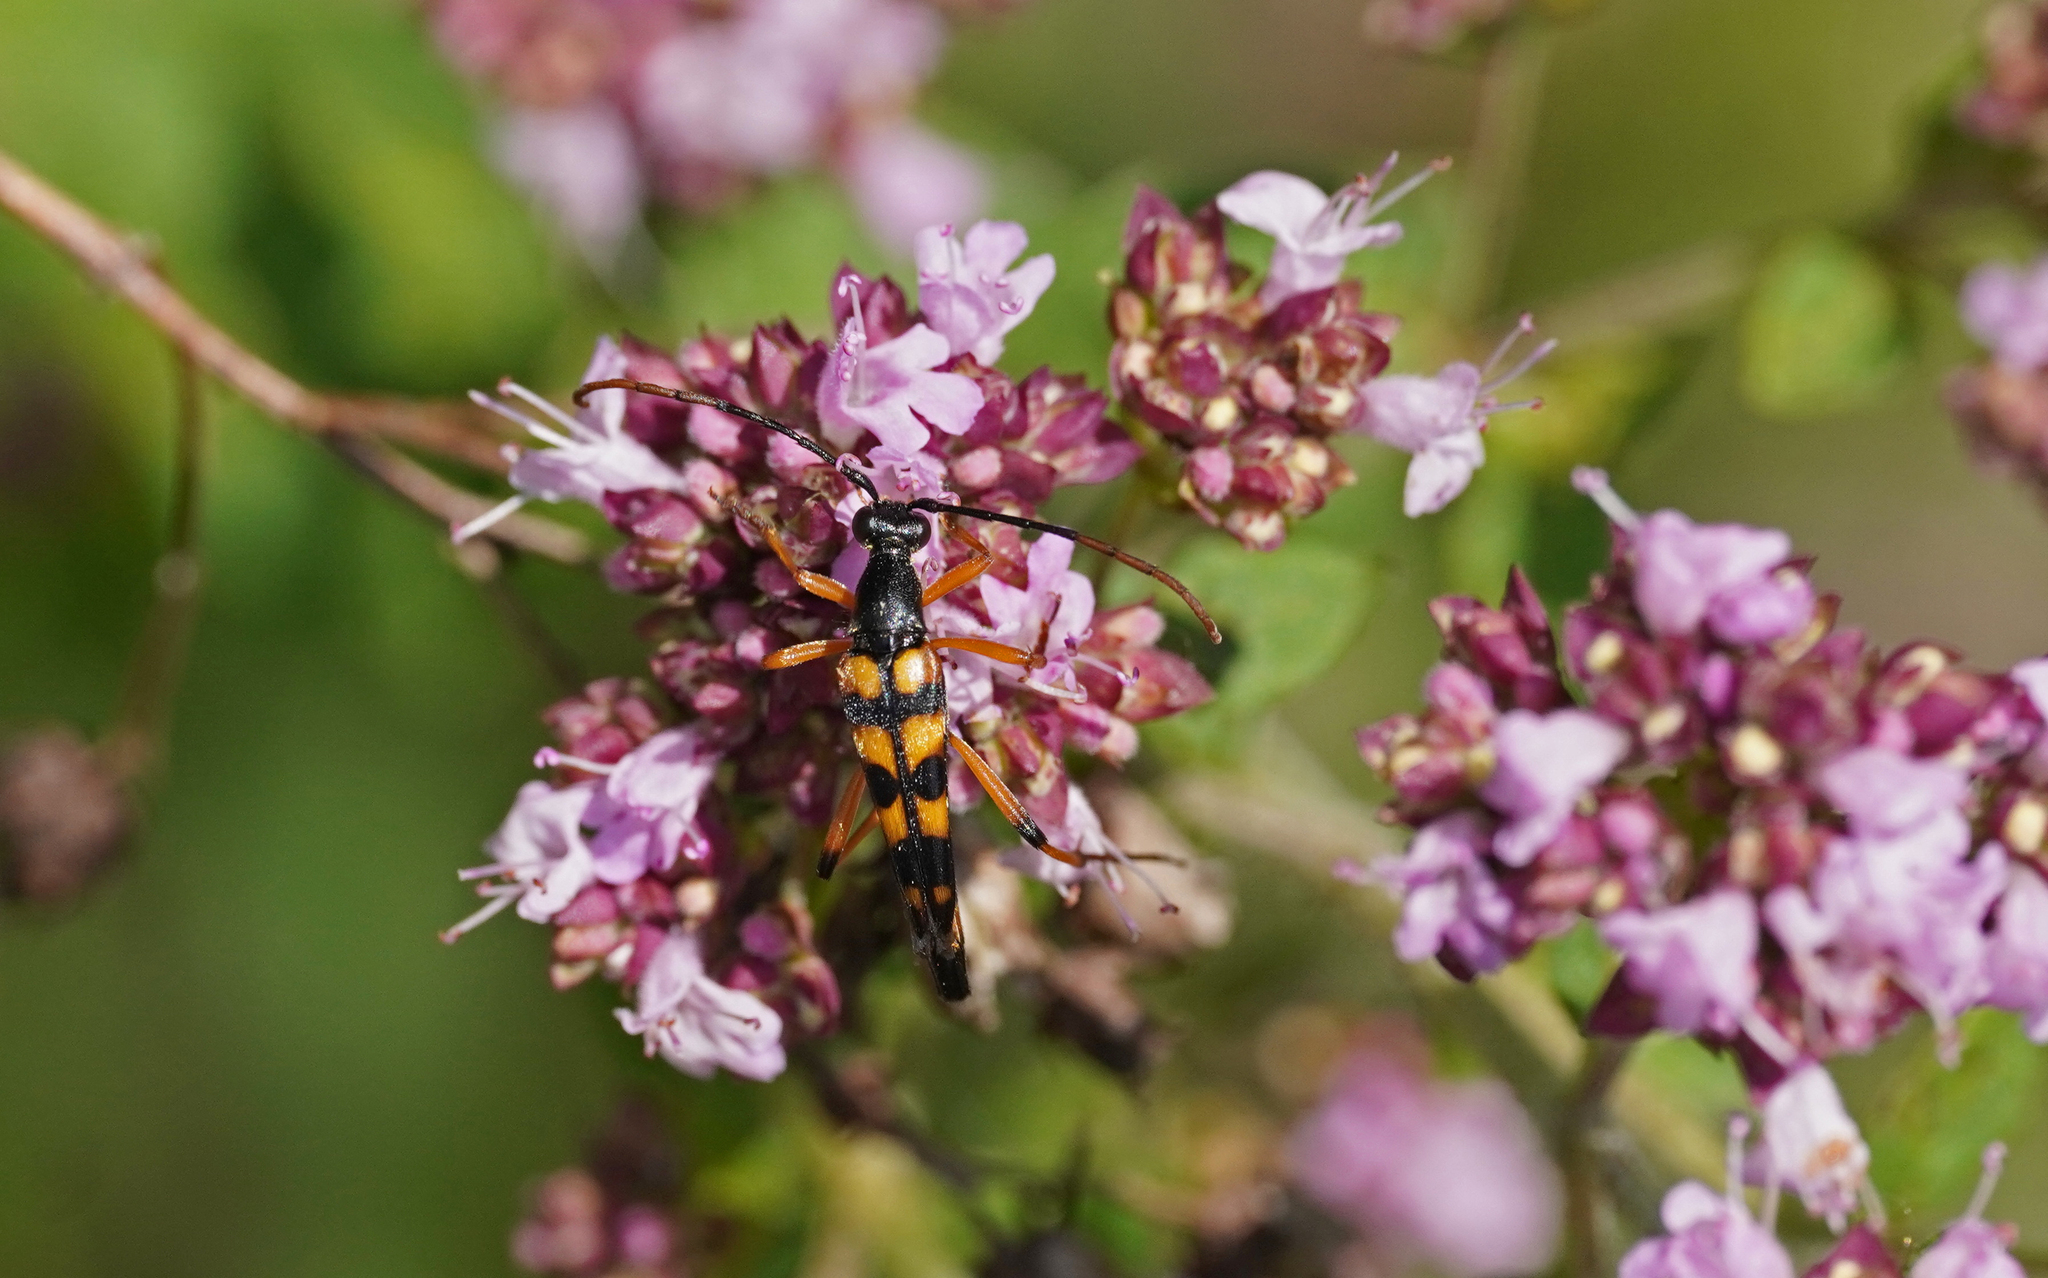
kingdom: Animalia
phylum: Arthropoda
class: Insecta
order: Coleoptera
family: Cerambycidae
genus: Strangalia
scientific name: Strangalia attenuata
